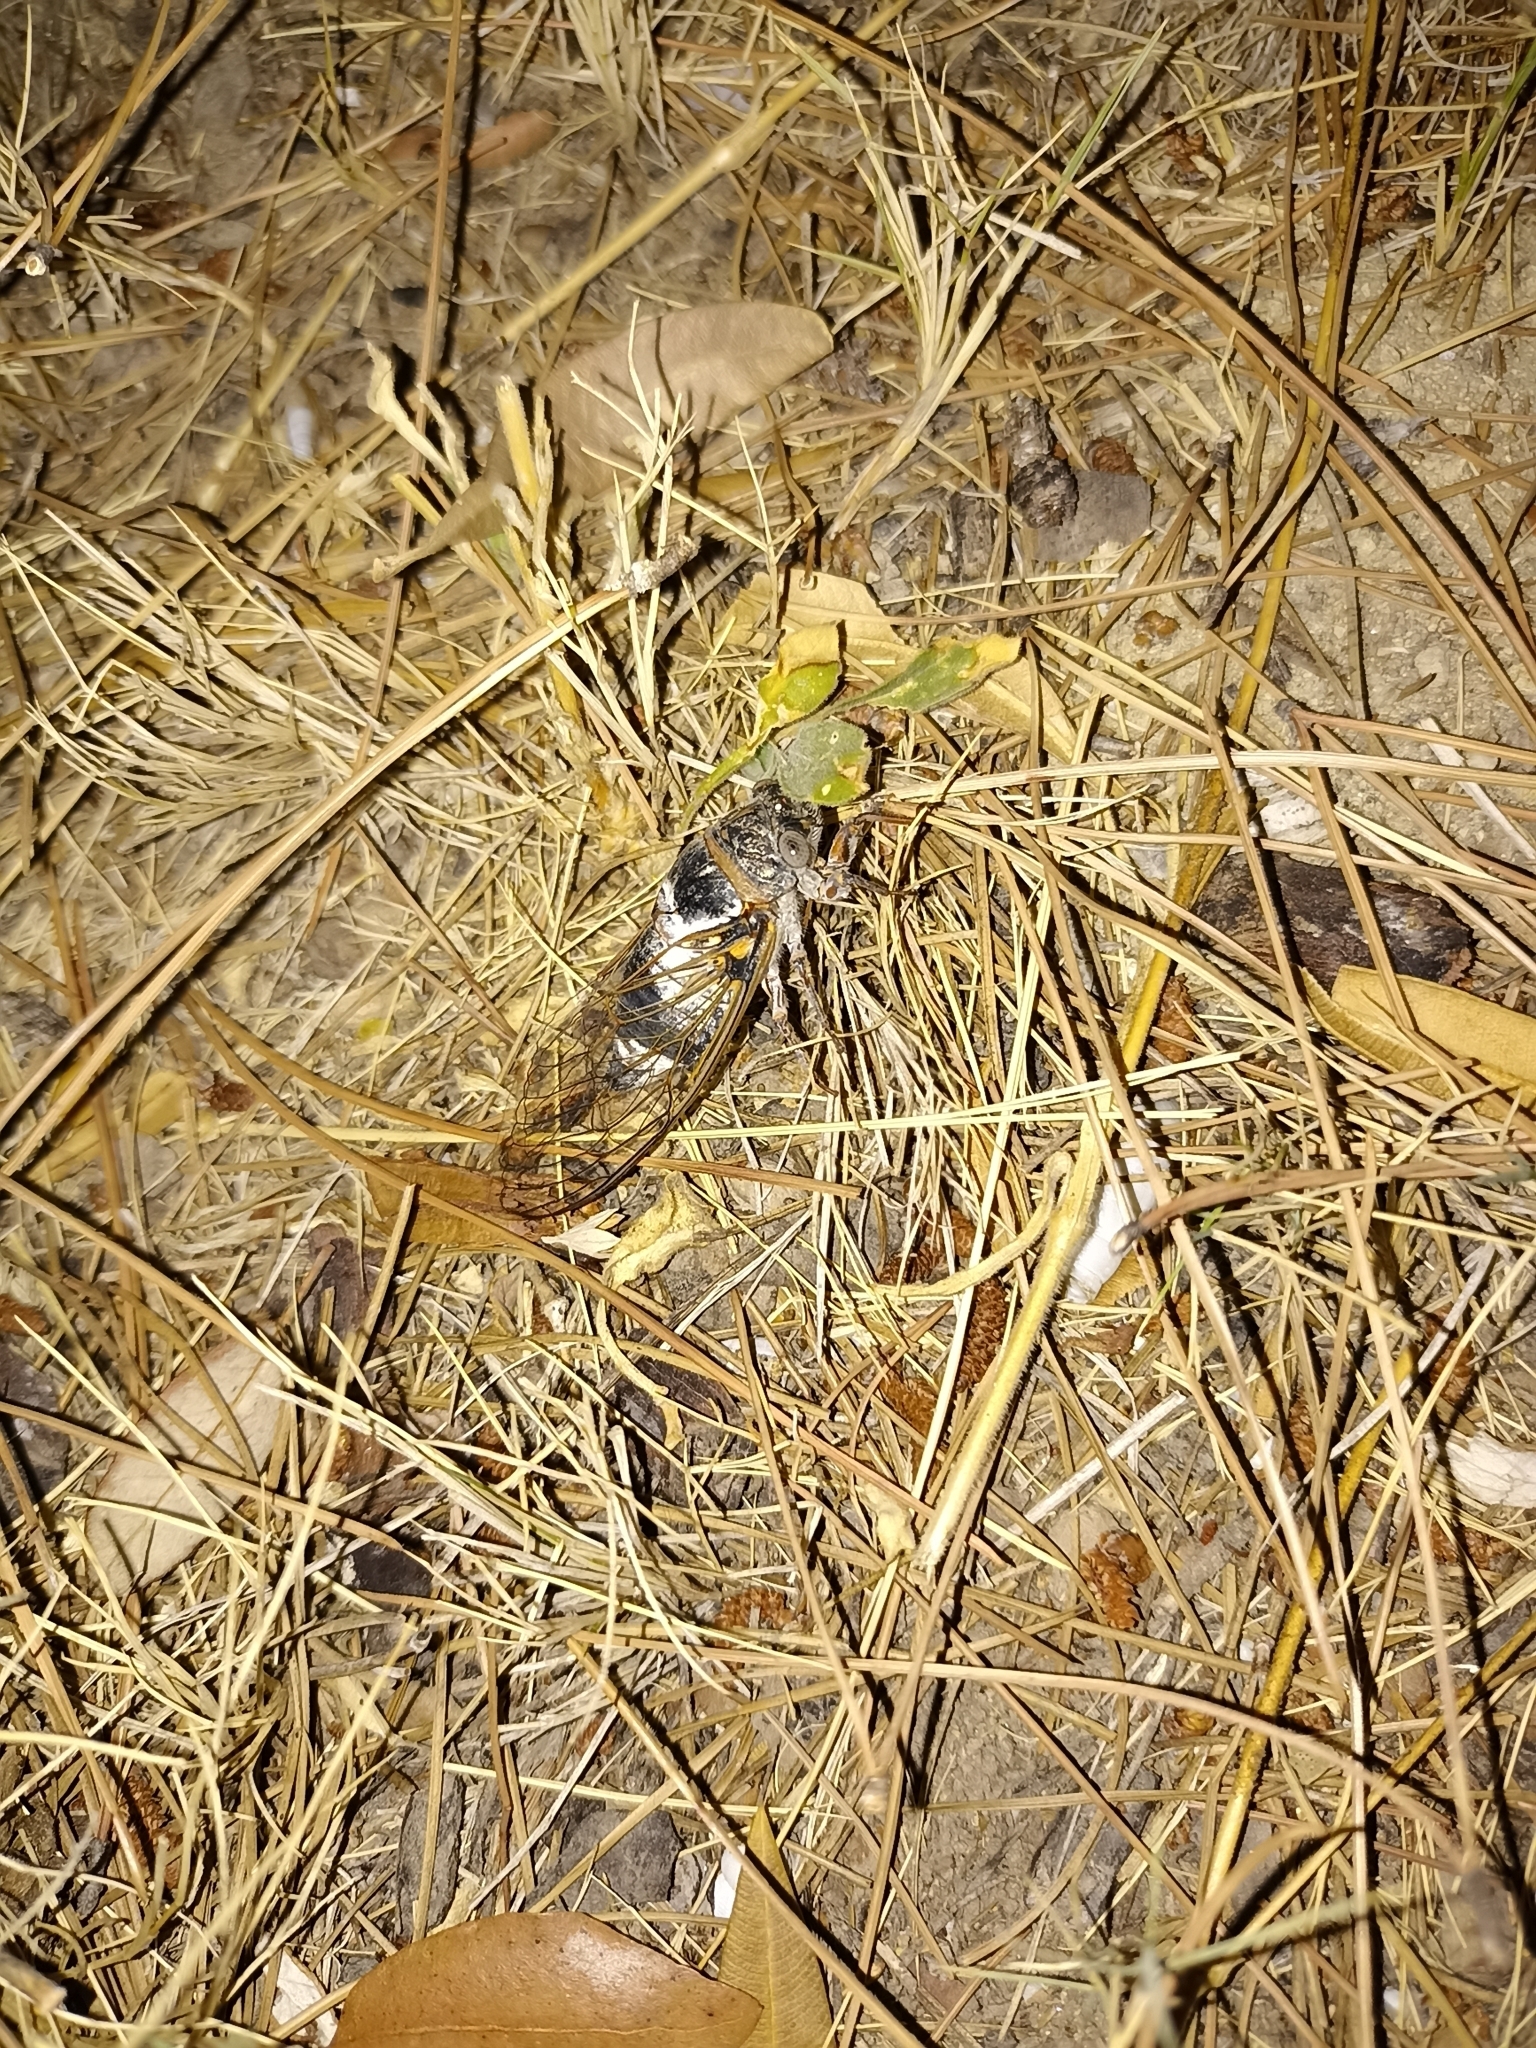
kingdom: Animalia
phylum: Arthropoda
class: Insecta
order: Hemiptera
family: Cicadidae
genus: Lyristes
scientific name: Lyristes plebejus
